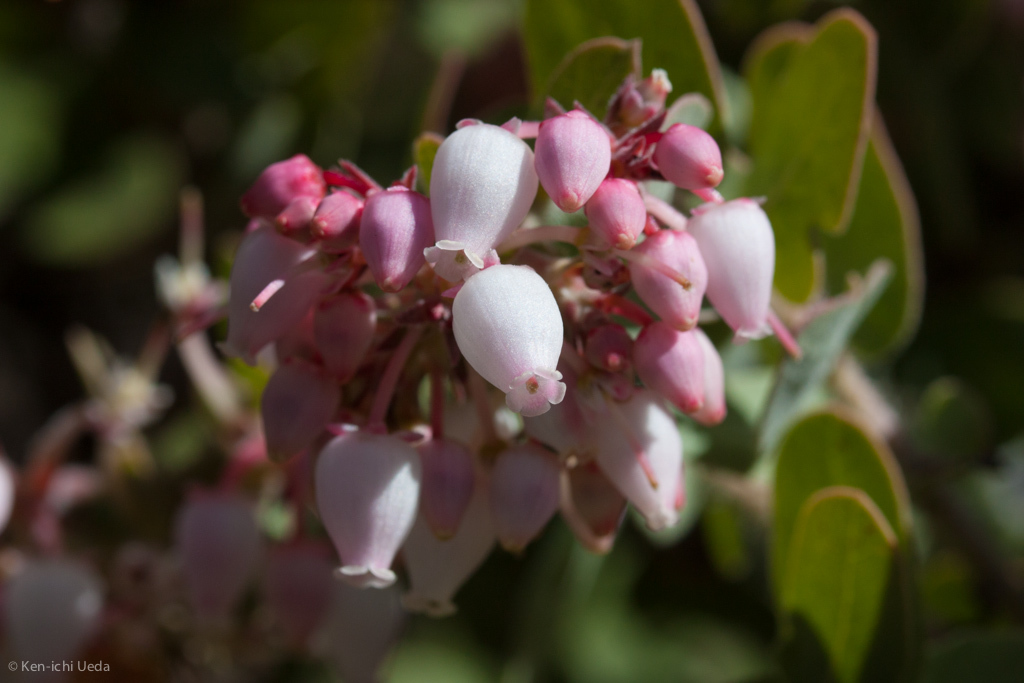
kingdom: Plantae
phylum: Tracheophyta
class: Magnoliopsida
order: Ericales
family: Ericaceae
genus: Arctostaphylos
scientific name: Arctostaphylos auriculata
